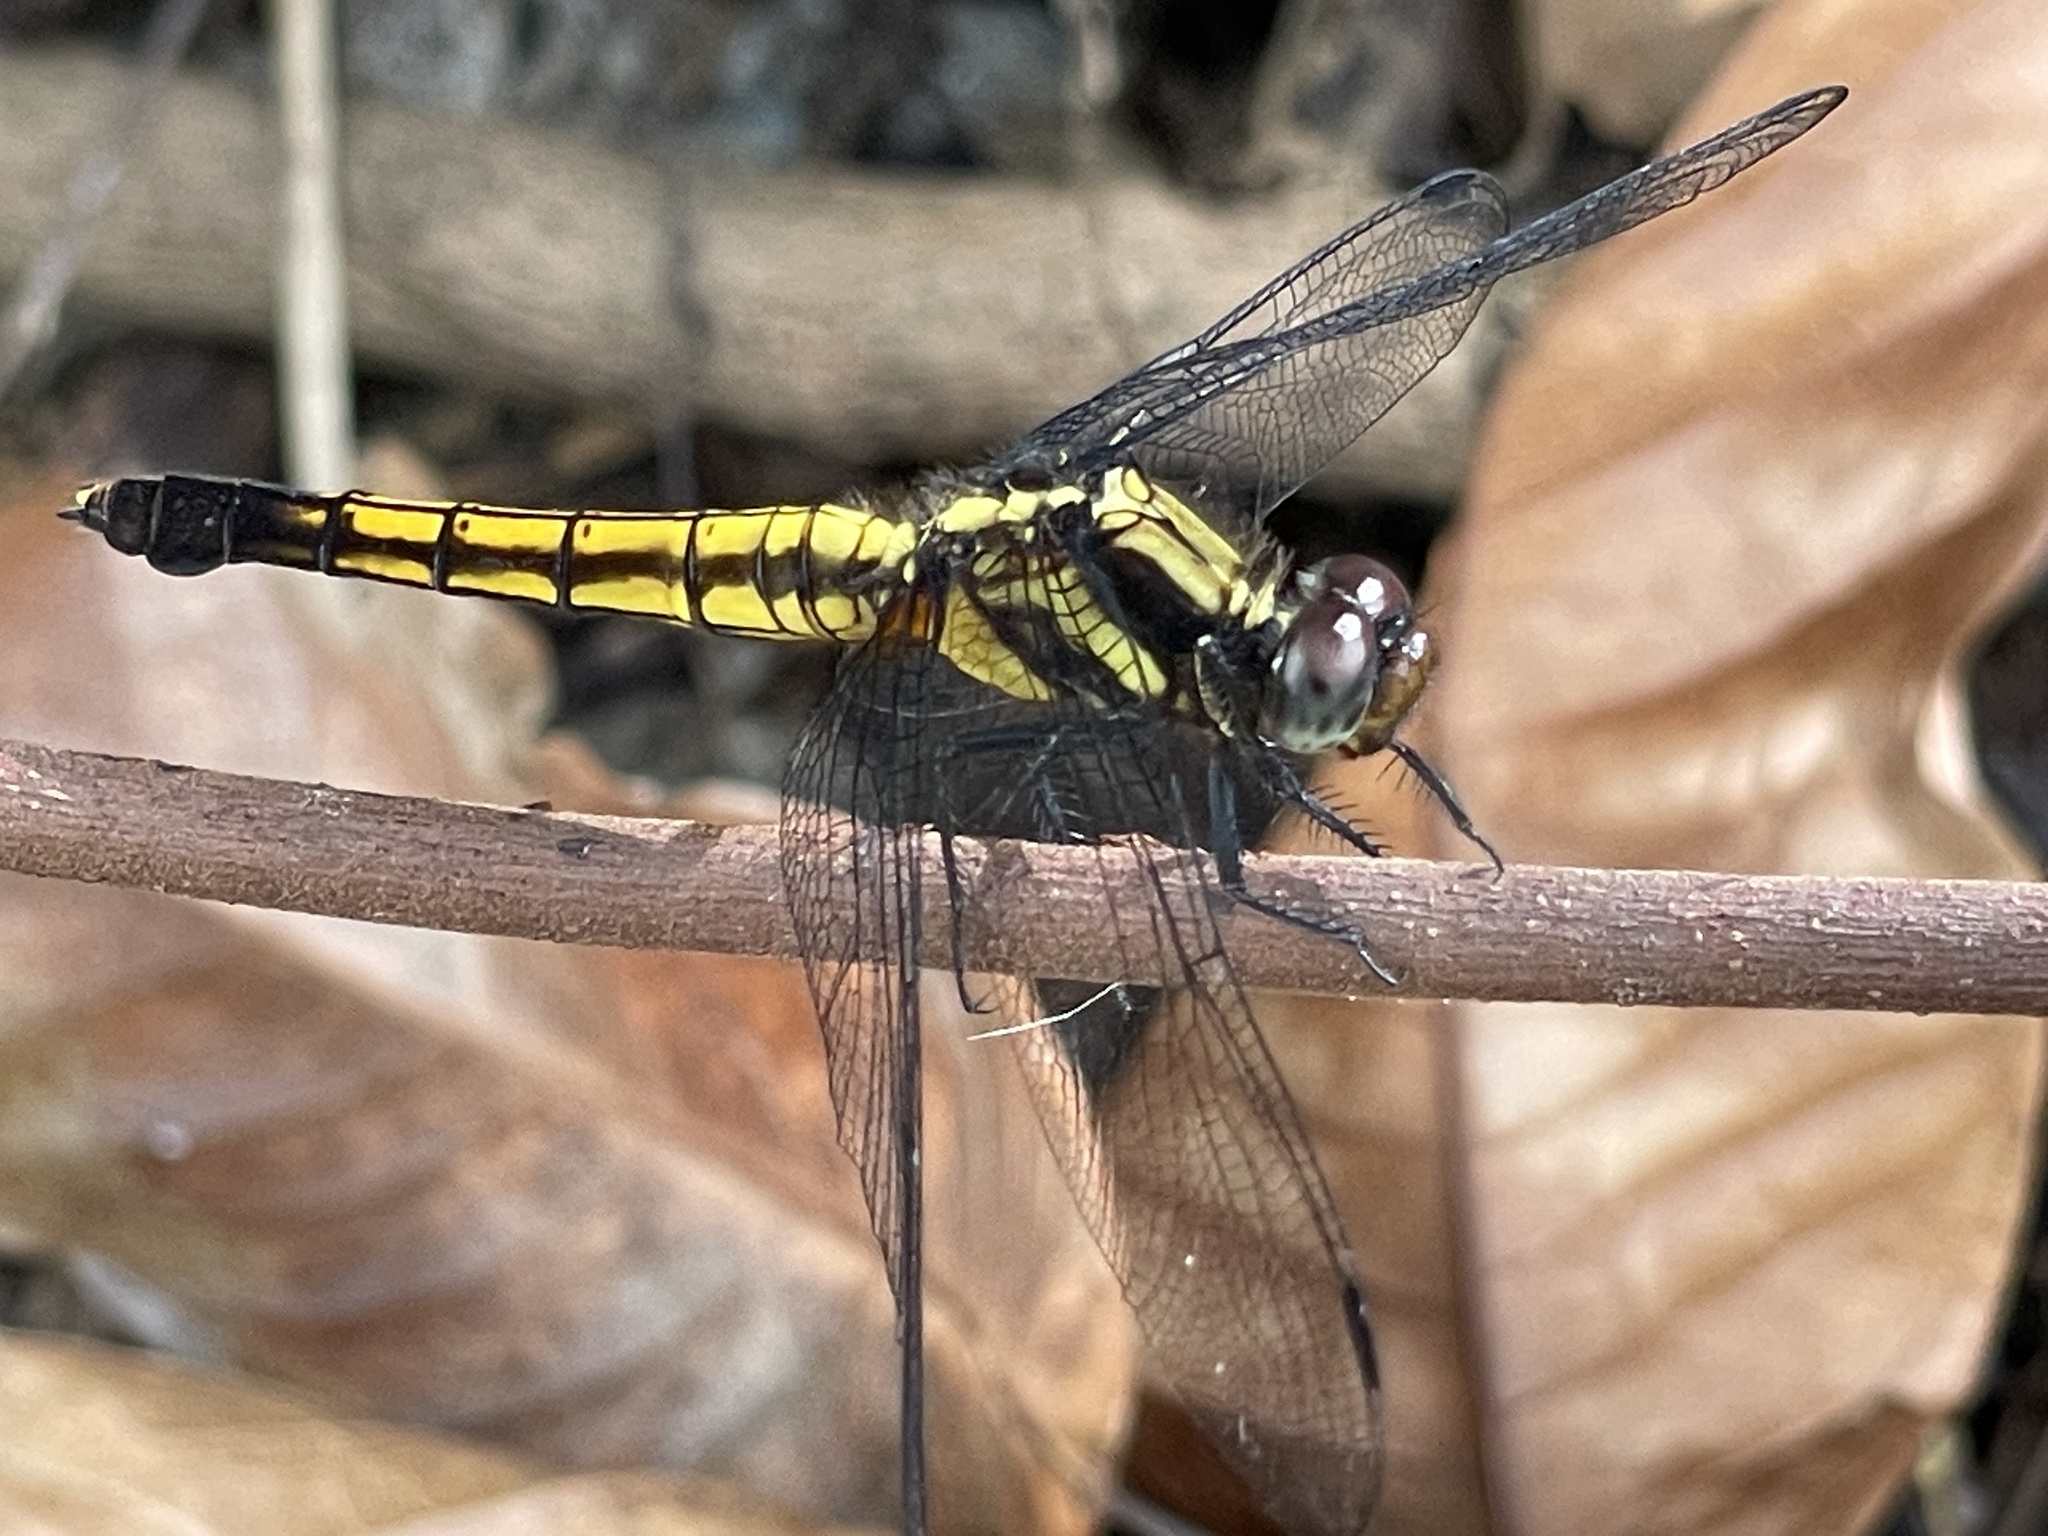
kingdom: Animalia
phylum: Arthropoda
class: Insecta
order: Odonata
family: Libellulidae
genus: Orthetrum
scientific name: Orthetrum triangulare
